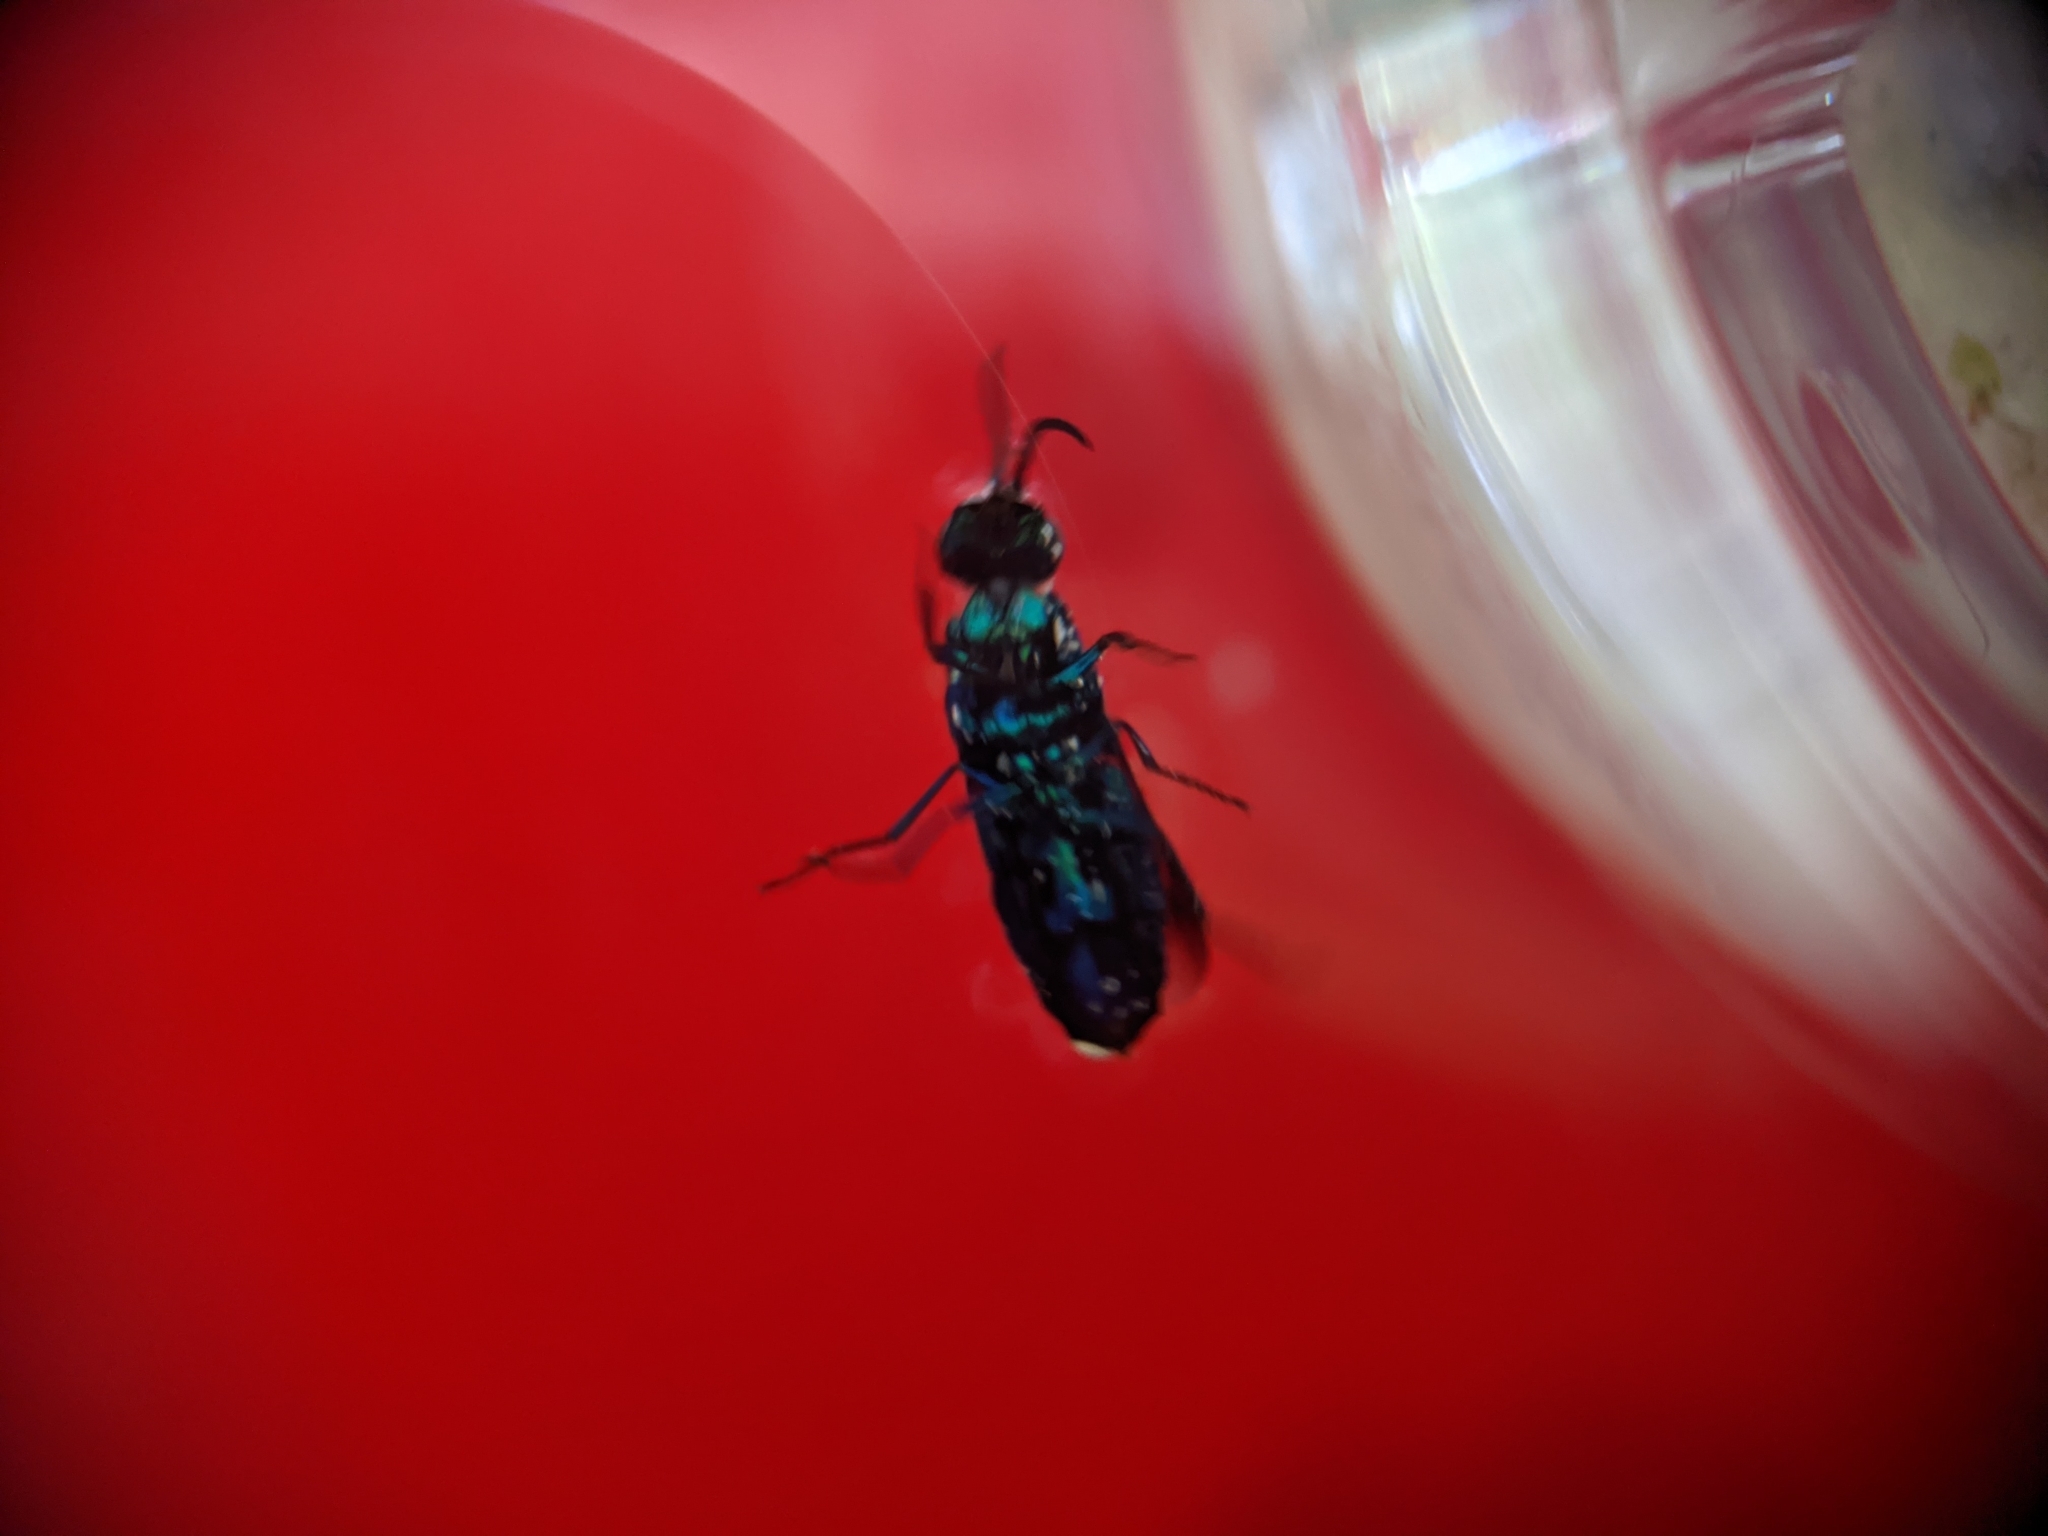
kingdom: Animalia
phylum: Arthropoda
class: Insecta
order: Hymenoptera
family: Chrysididae
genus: Chrysis
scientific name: Chrysis angolensis
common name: Cuckoo wasp
